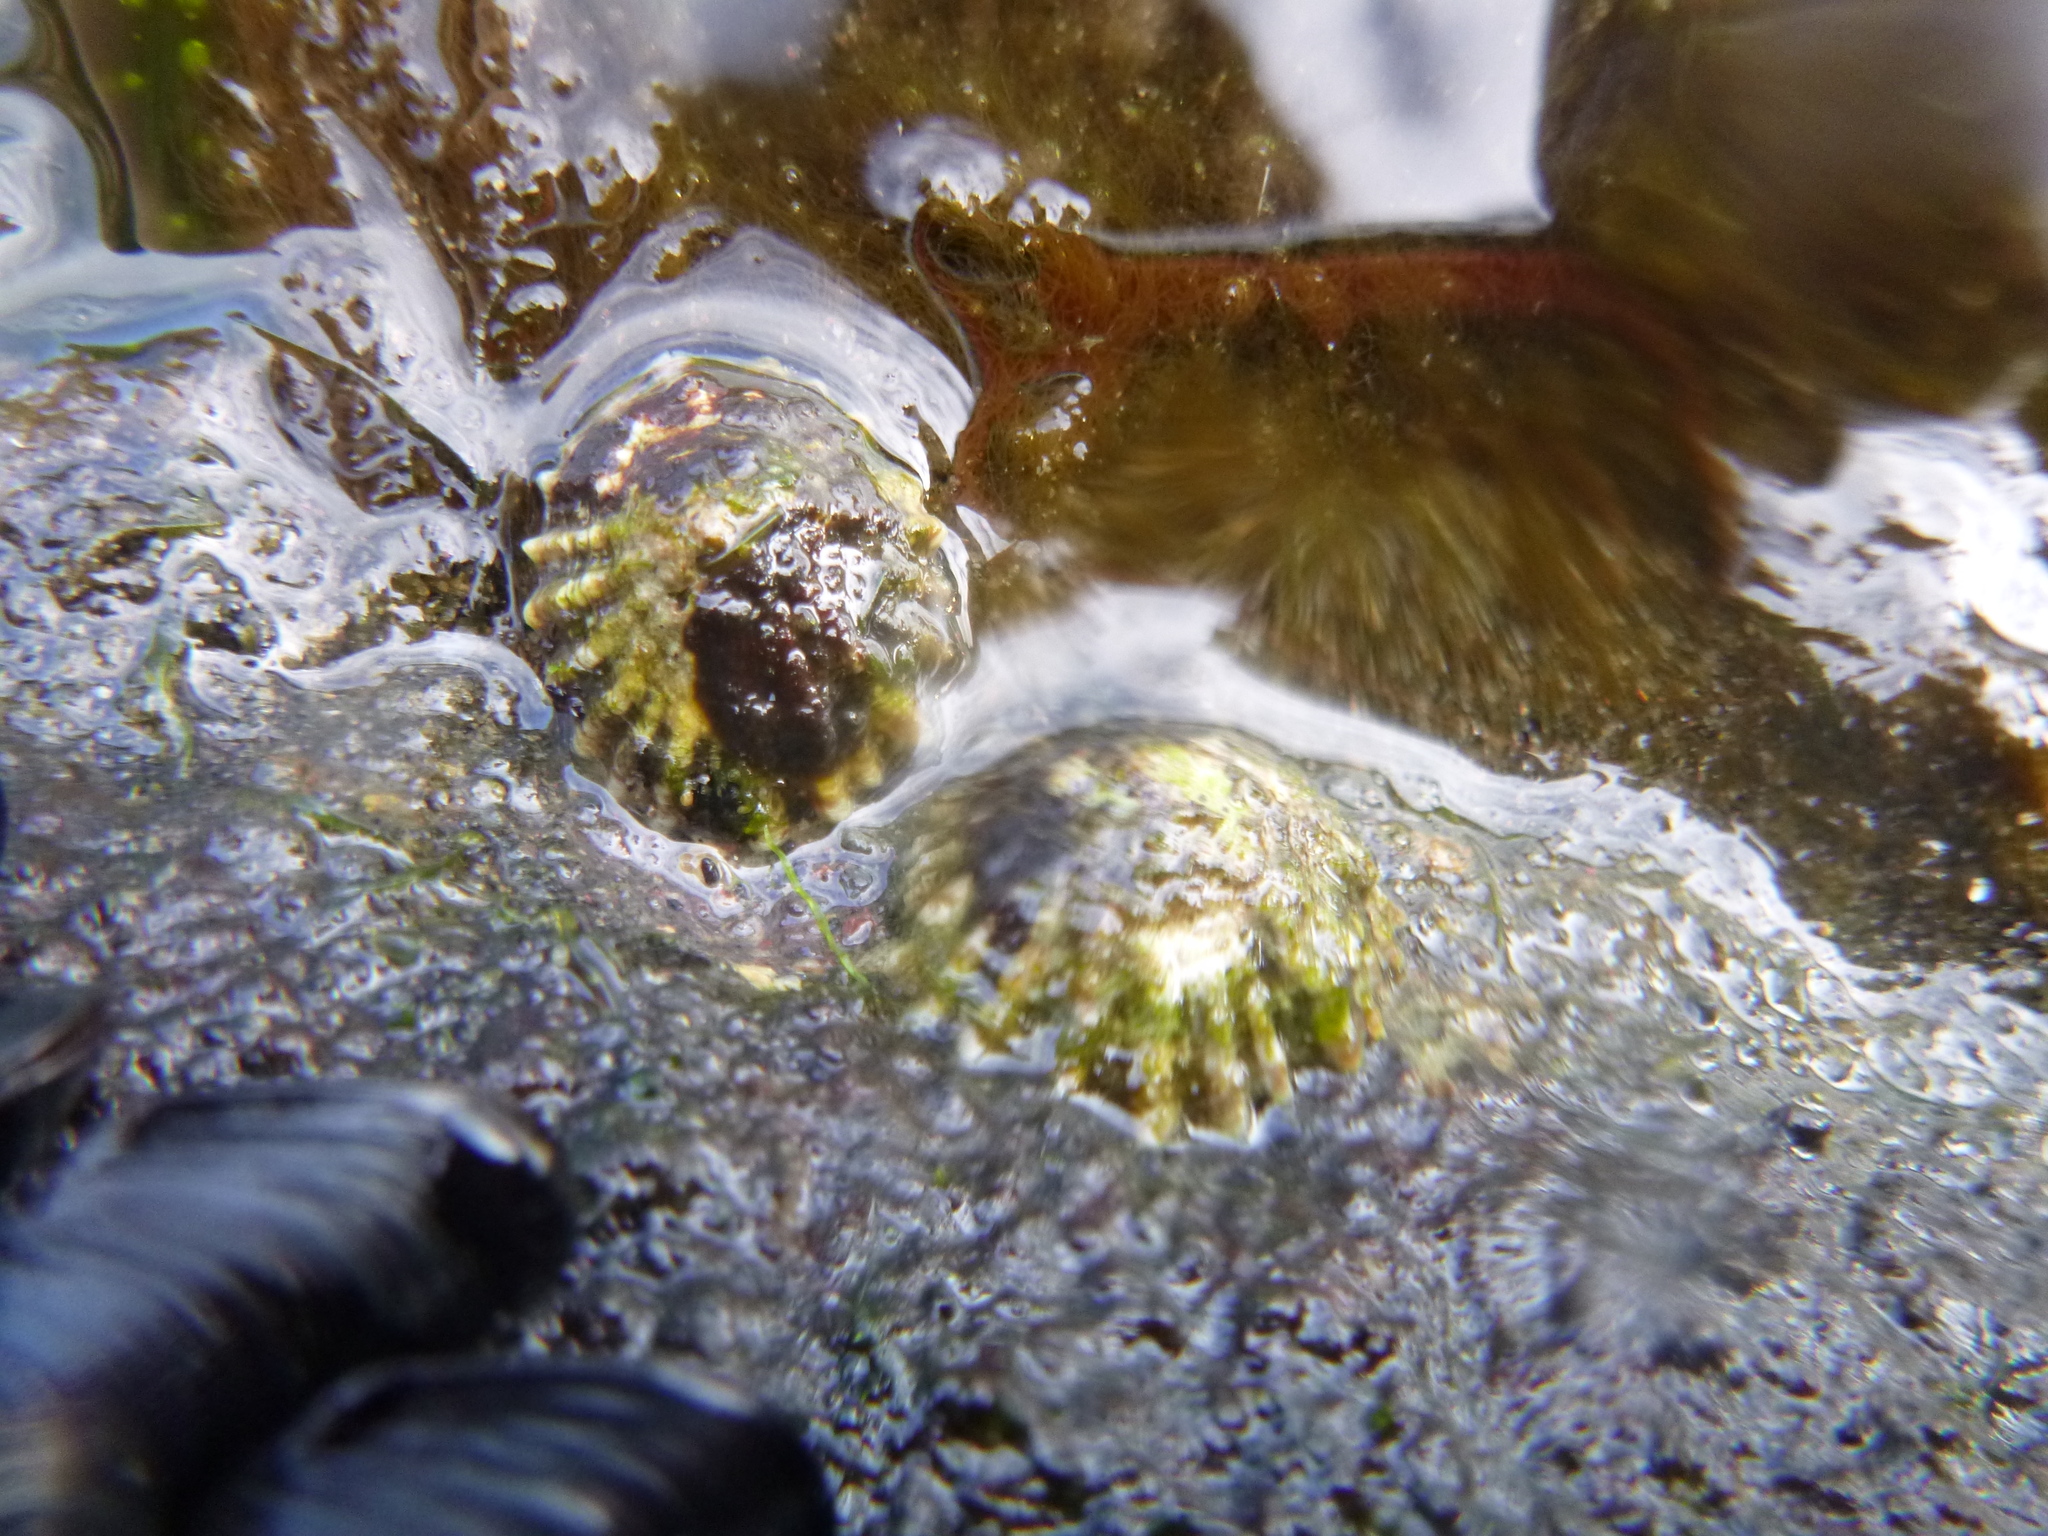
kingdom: Animalia
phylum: Mollusca
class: Gastropoda
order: Siphonariida
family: Siphonariidae
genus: Siphonaria
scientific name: Siphonaria australis
